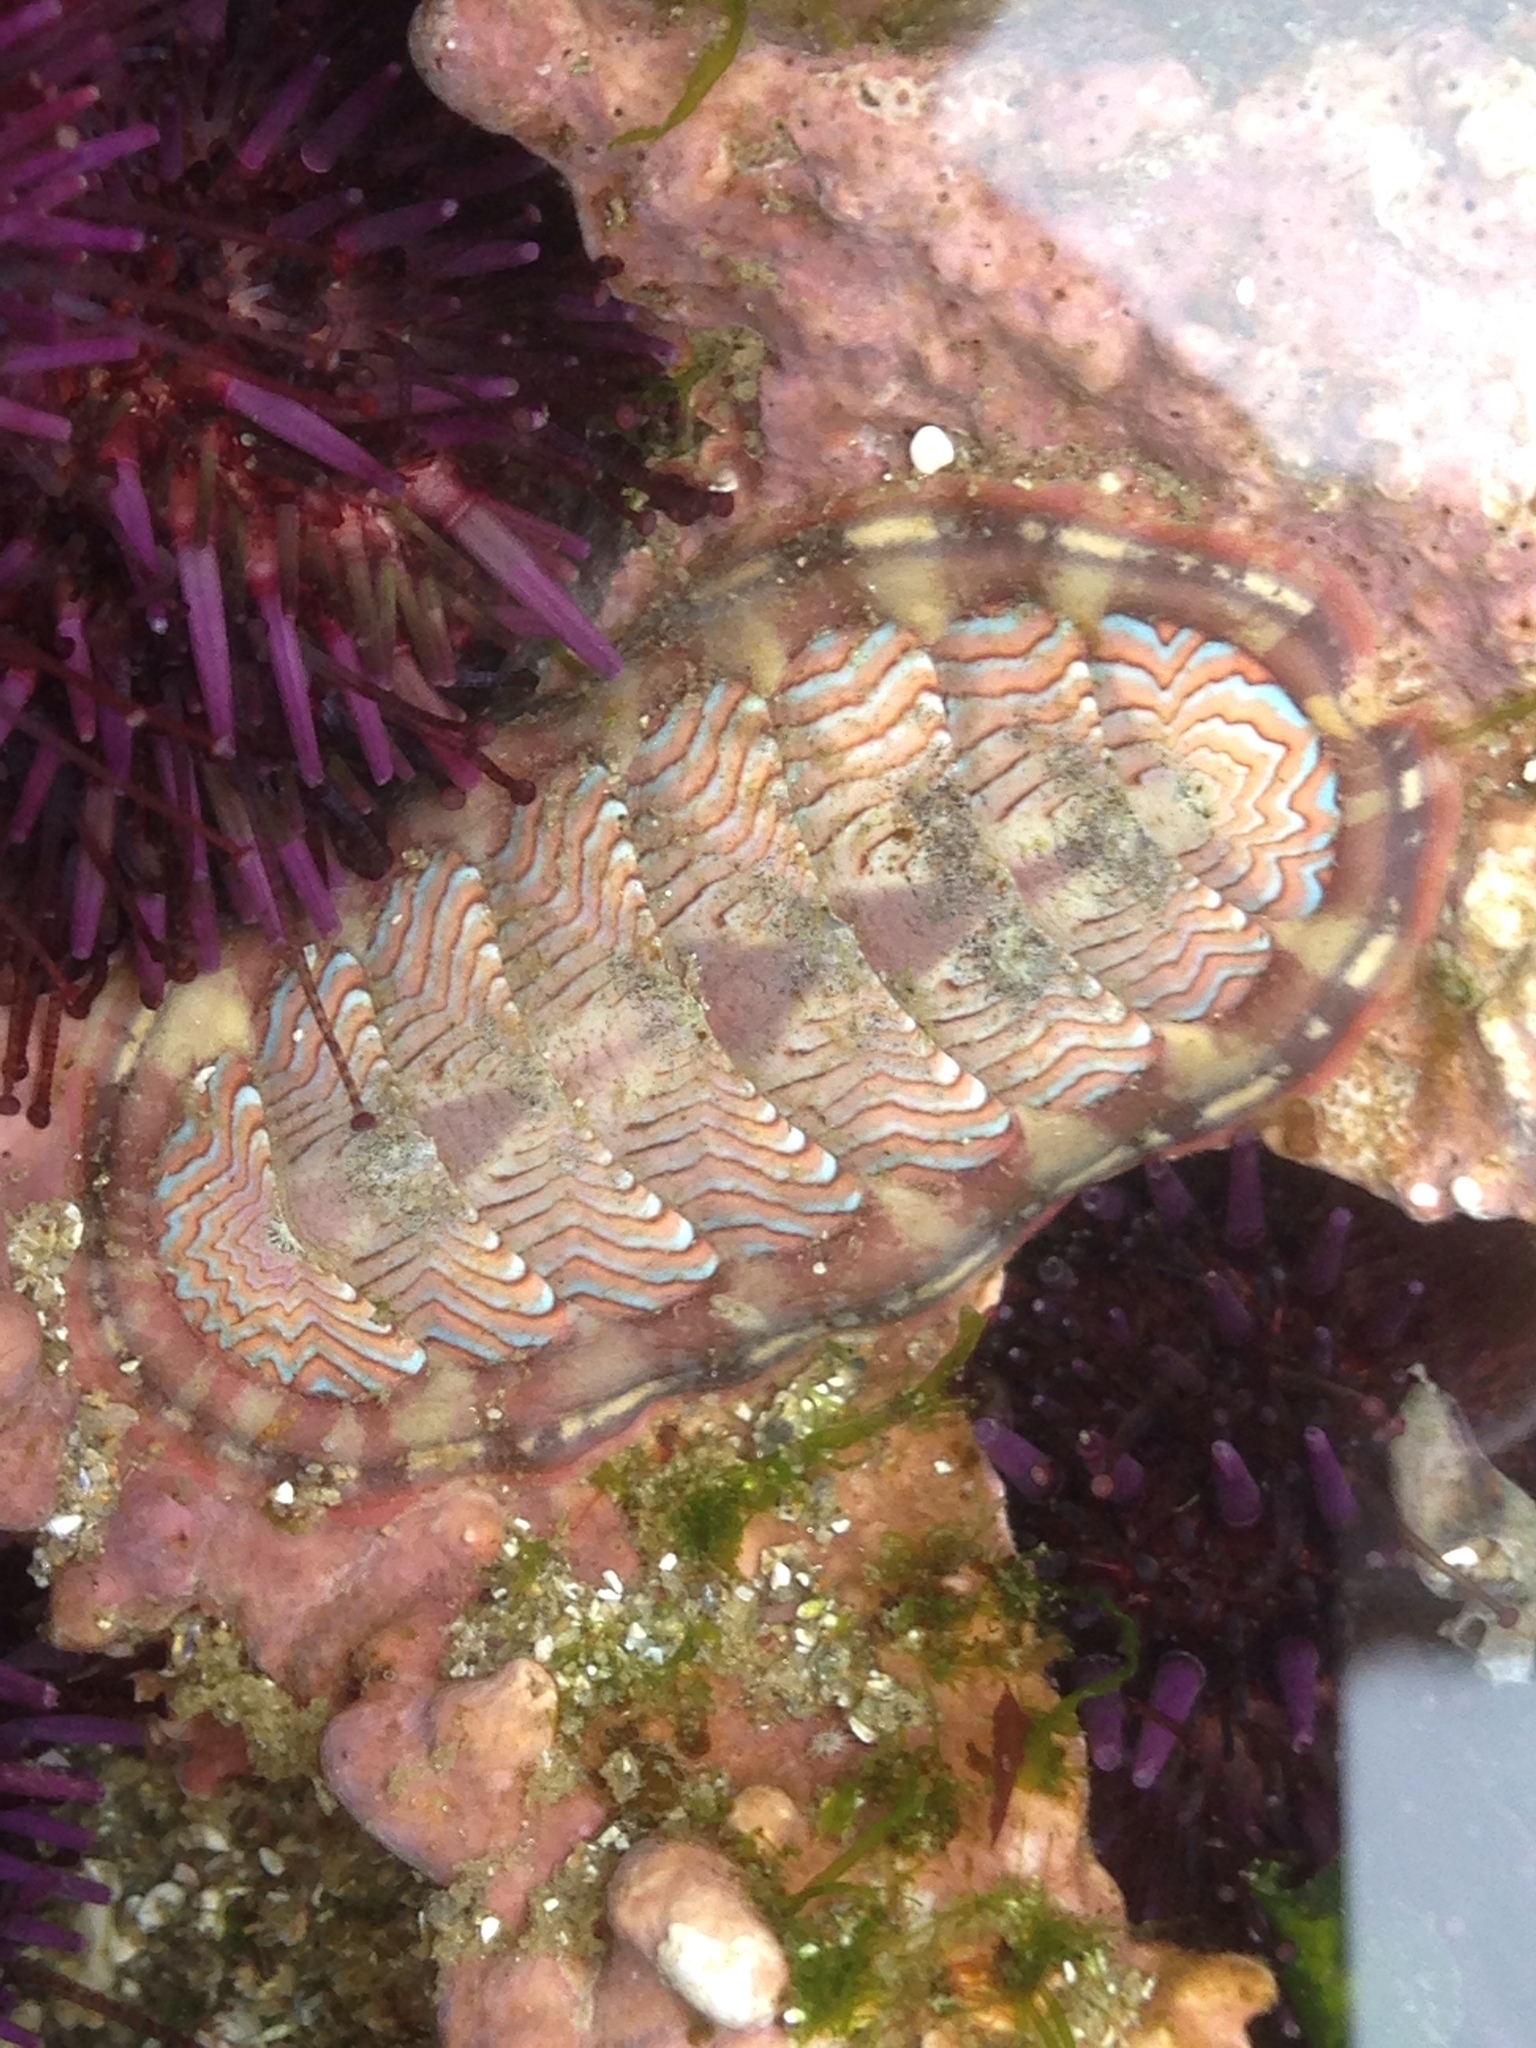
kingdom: Animalia
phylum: Mollusca
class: Polyplacophora
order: Chitonida
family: Tonicellidae
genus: Tonicella
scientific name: Tonicella lokii
